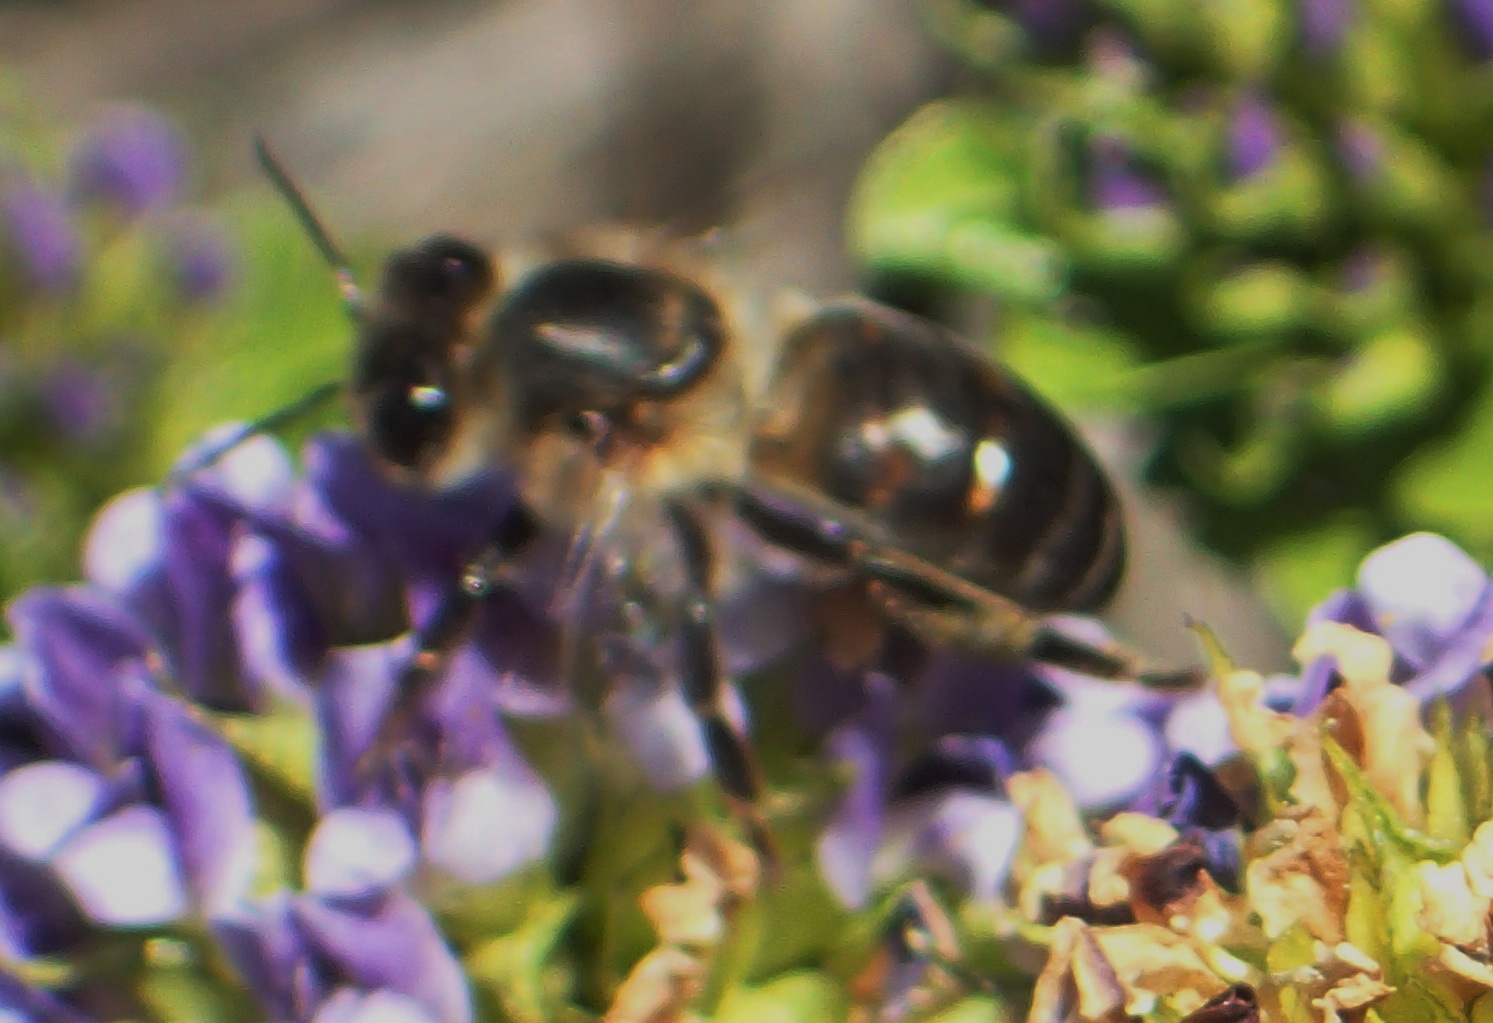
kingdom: Animalia
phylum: Arthropoda
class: Insecta
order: Hymenoptera
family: Apidae
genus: Apis
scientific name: Apis mellifera
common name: Honey bee
